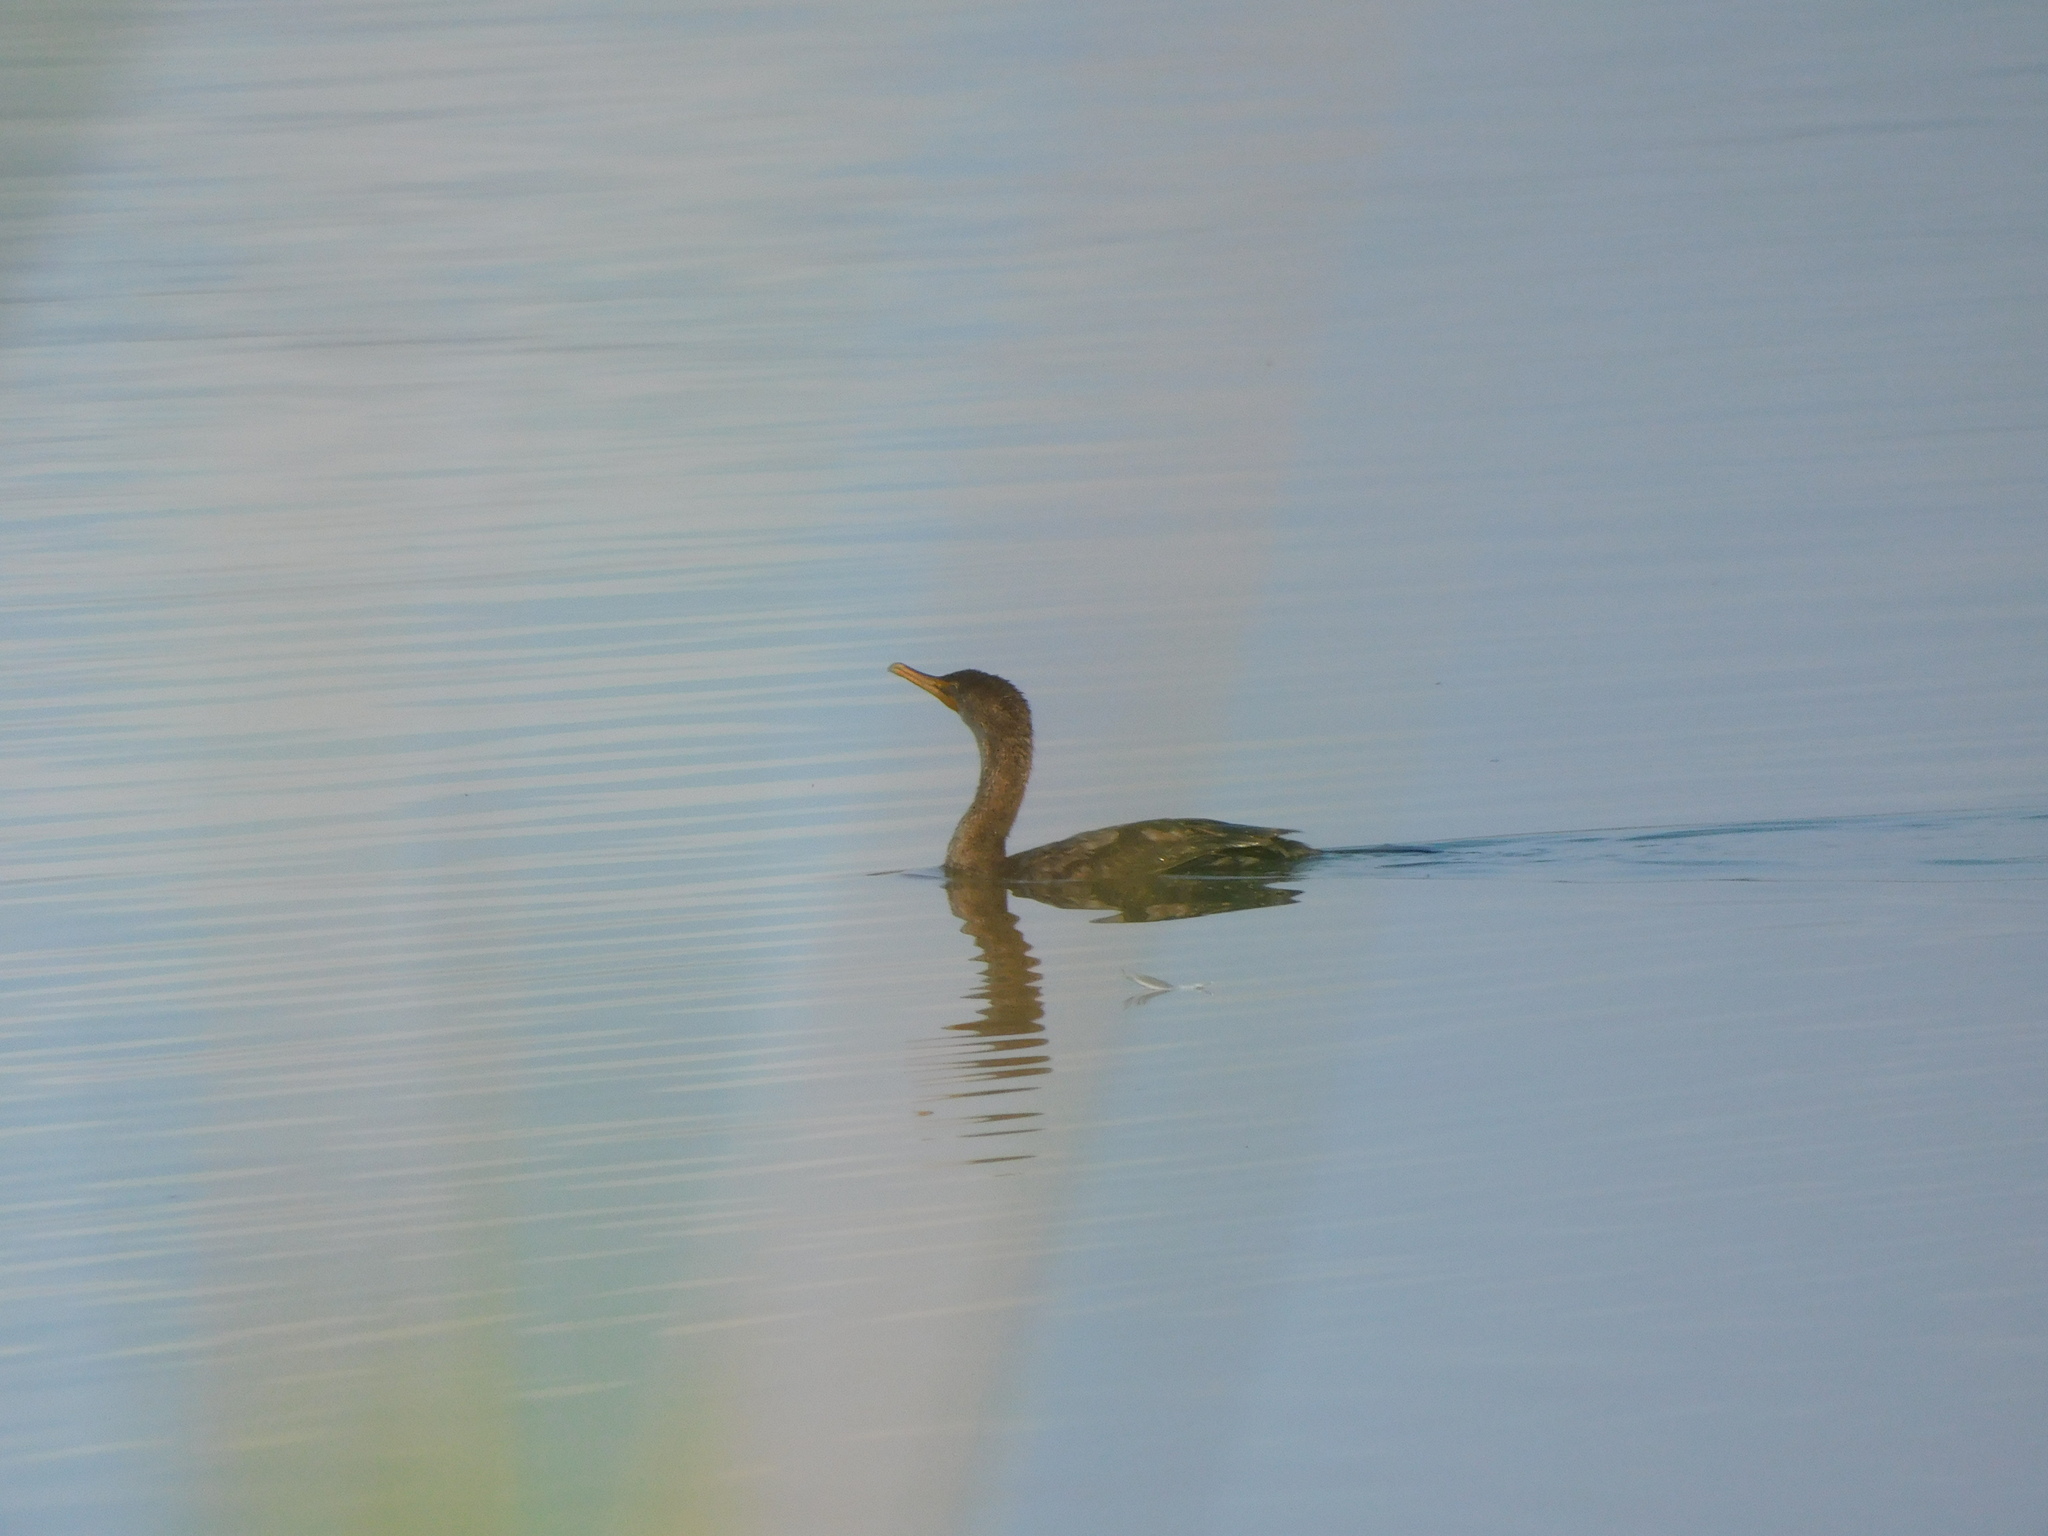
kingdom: Animalia
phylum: Chordata
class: Aves
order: Suliformes
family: Phalacrocoracidae
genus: Phalacrocorax
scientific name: Phalacrocorax auritus
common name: Double-crested cormorant
